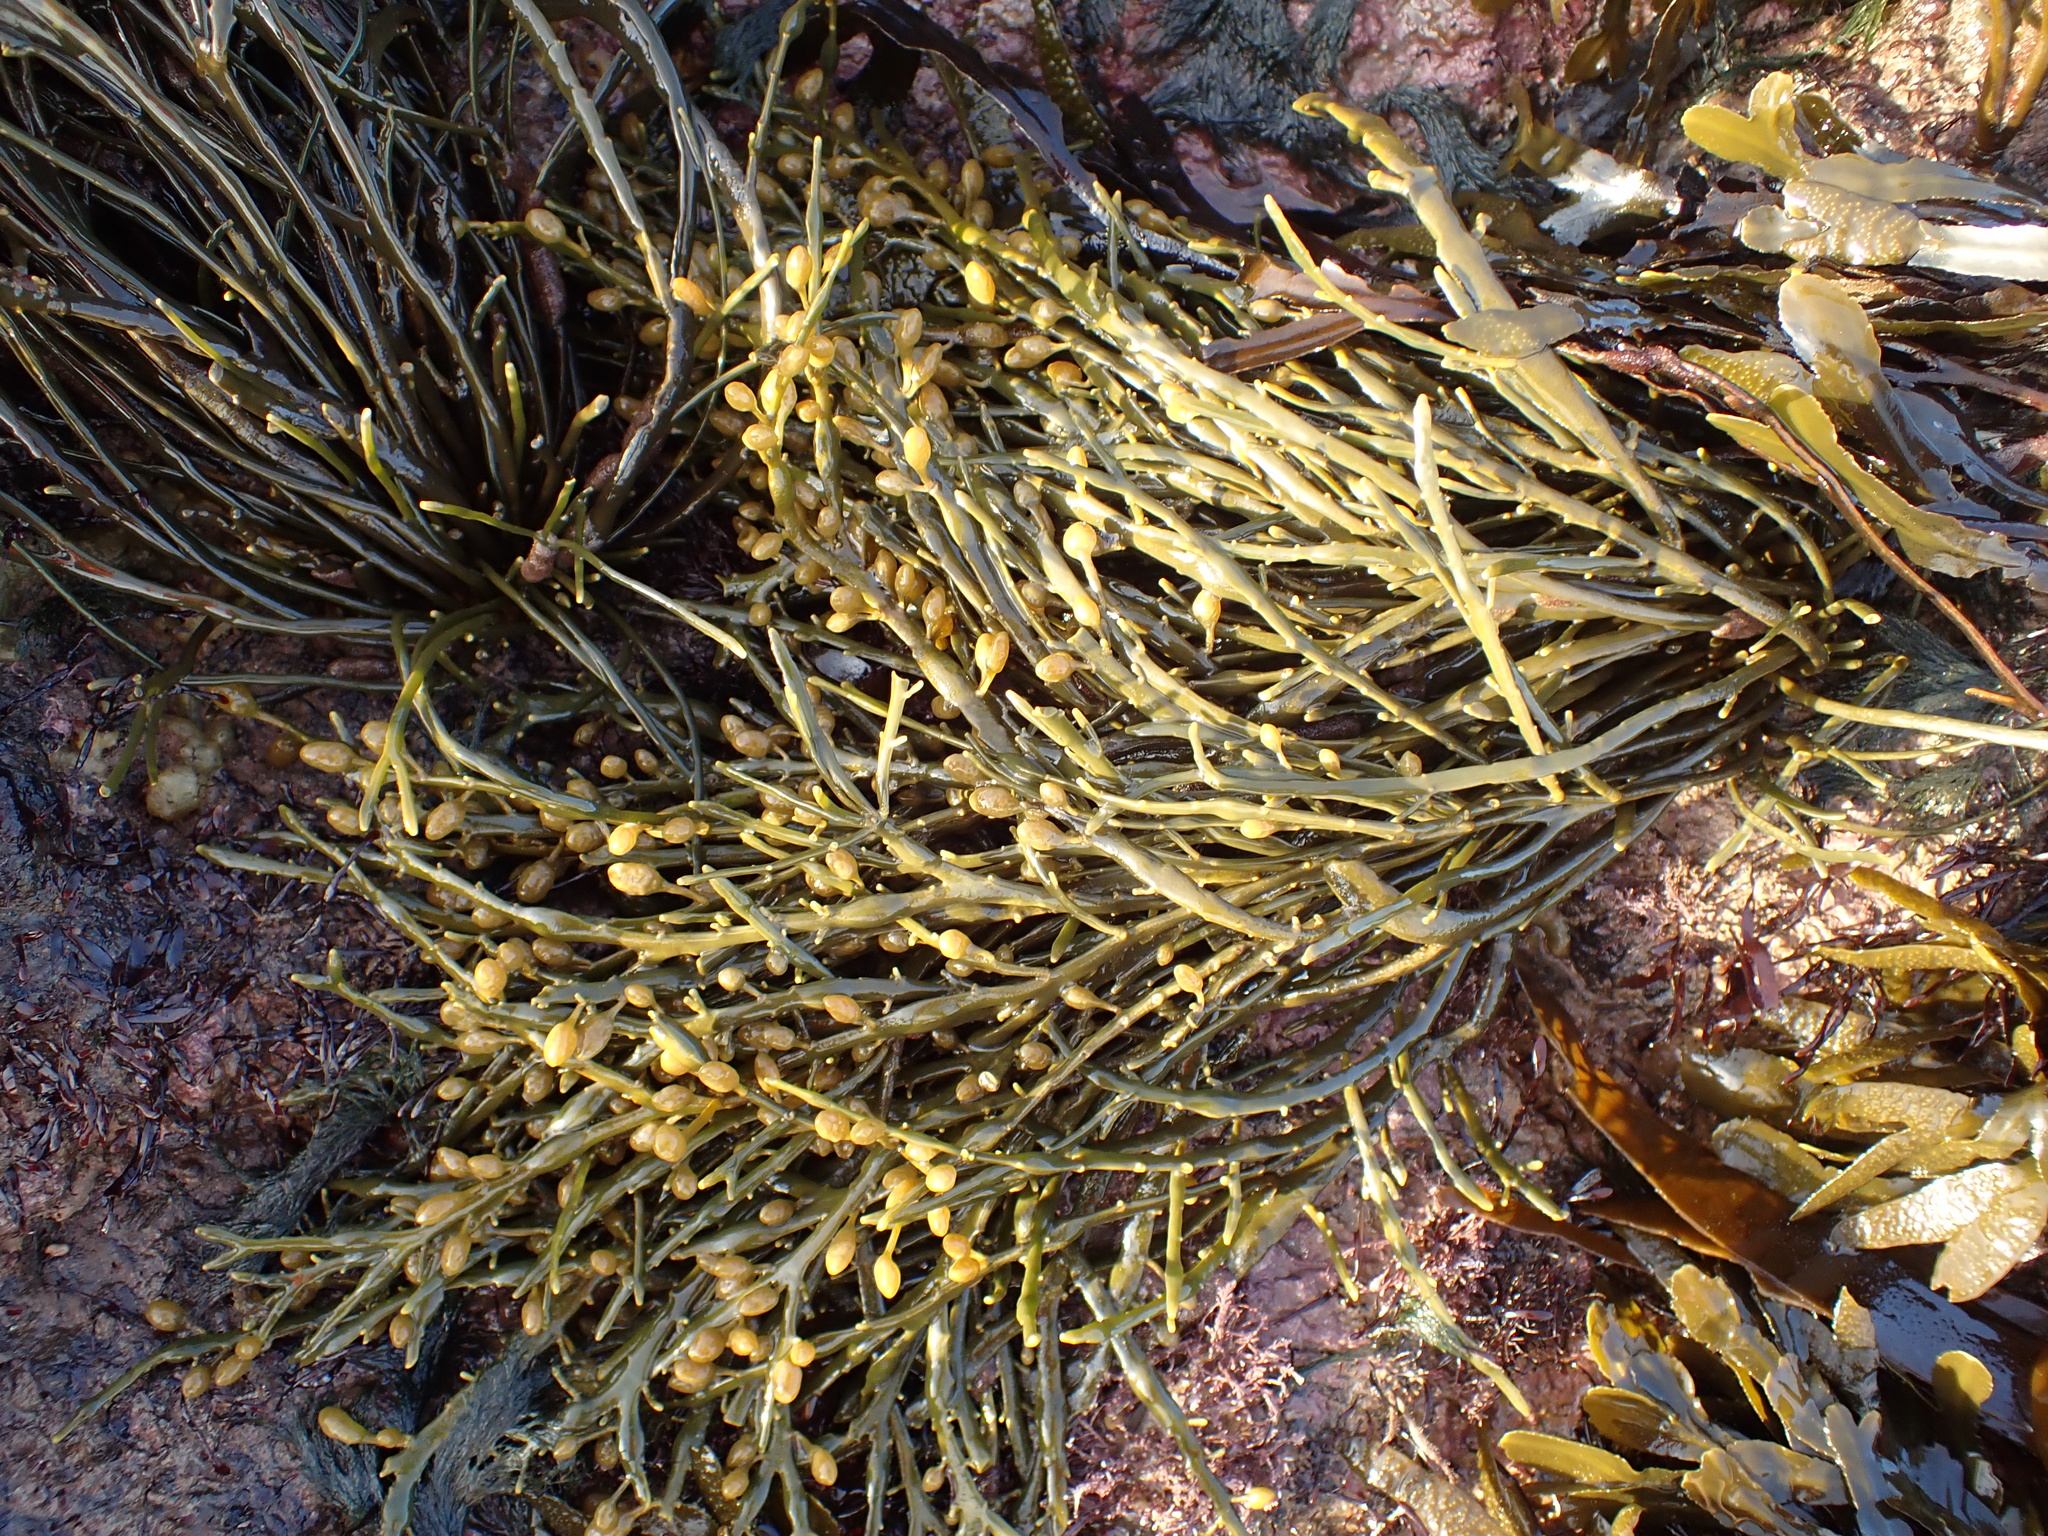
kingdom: Chromista
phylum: Ochrophyta
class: Phaeophyceae
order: Fucales
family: Fucaceae
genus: Ascophyllum
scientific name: Ascophyllum nodosum
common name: Knotted wrack
